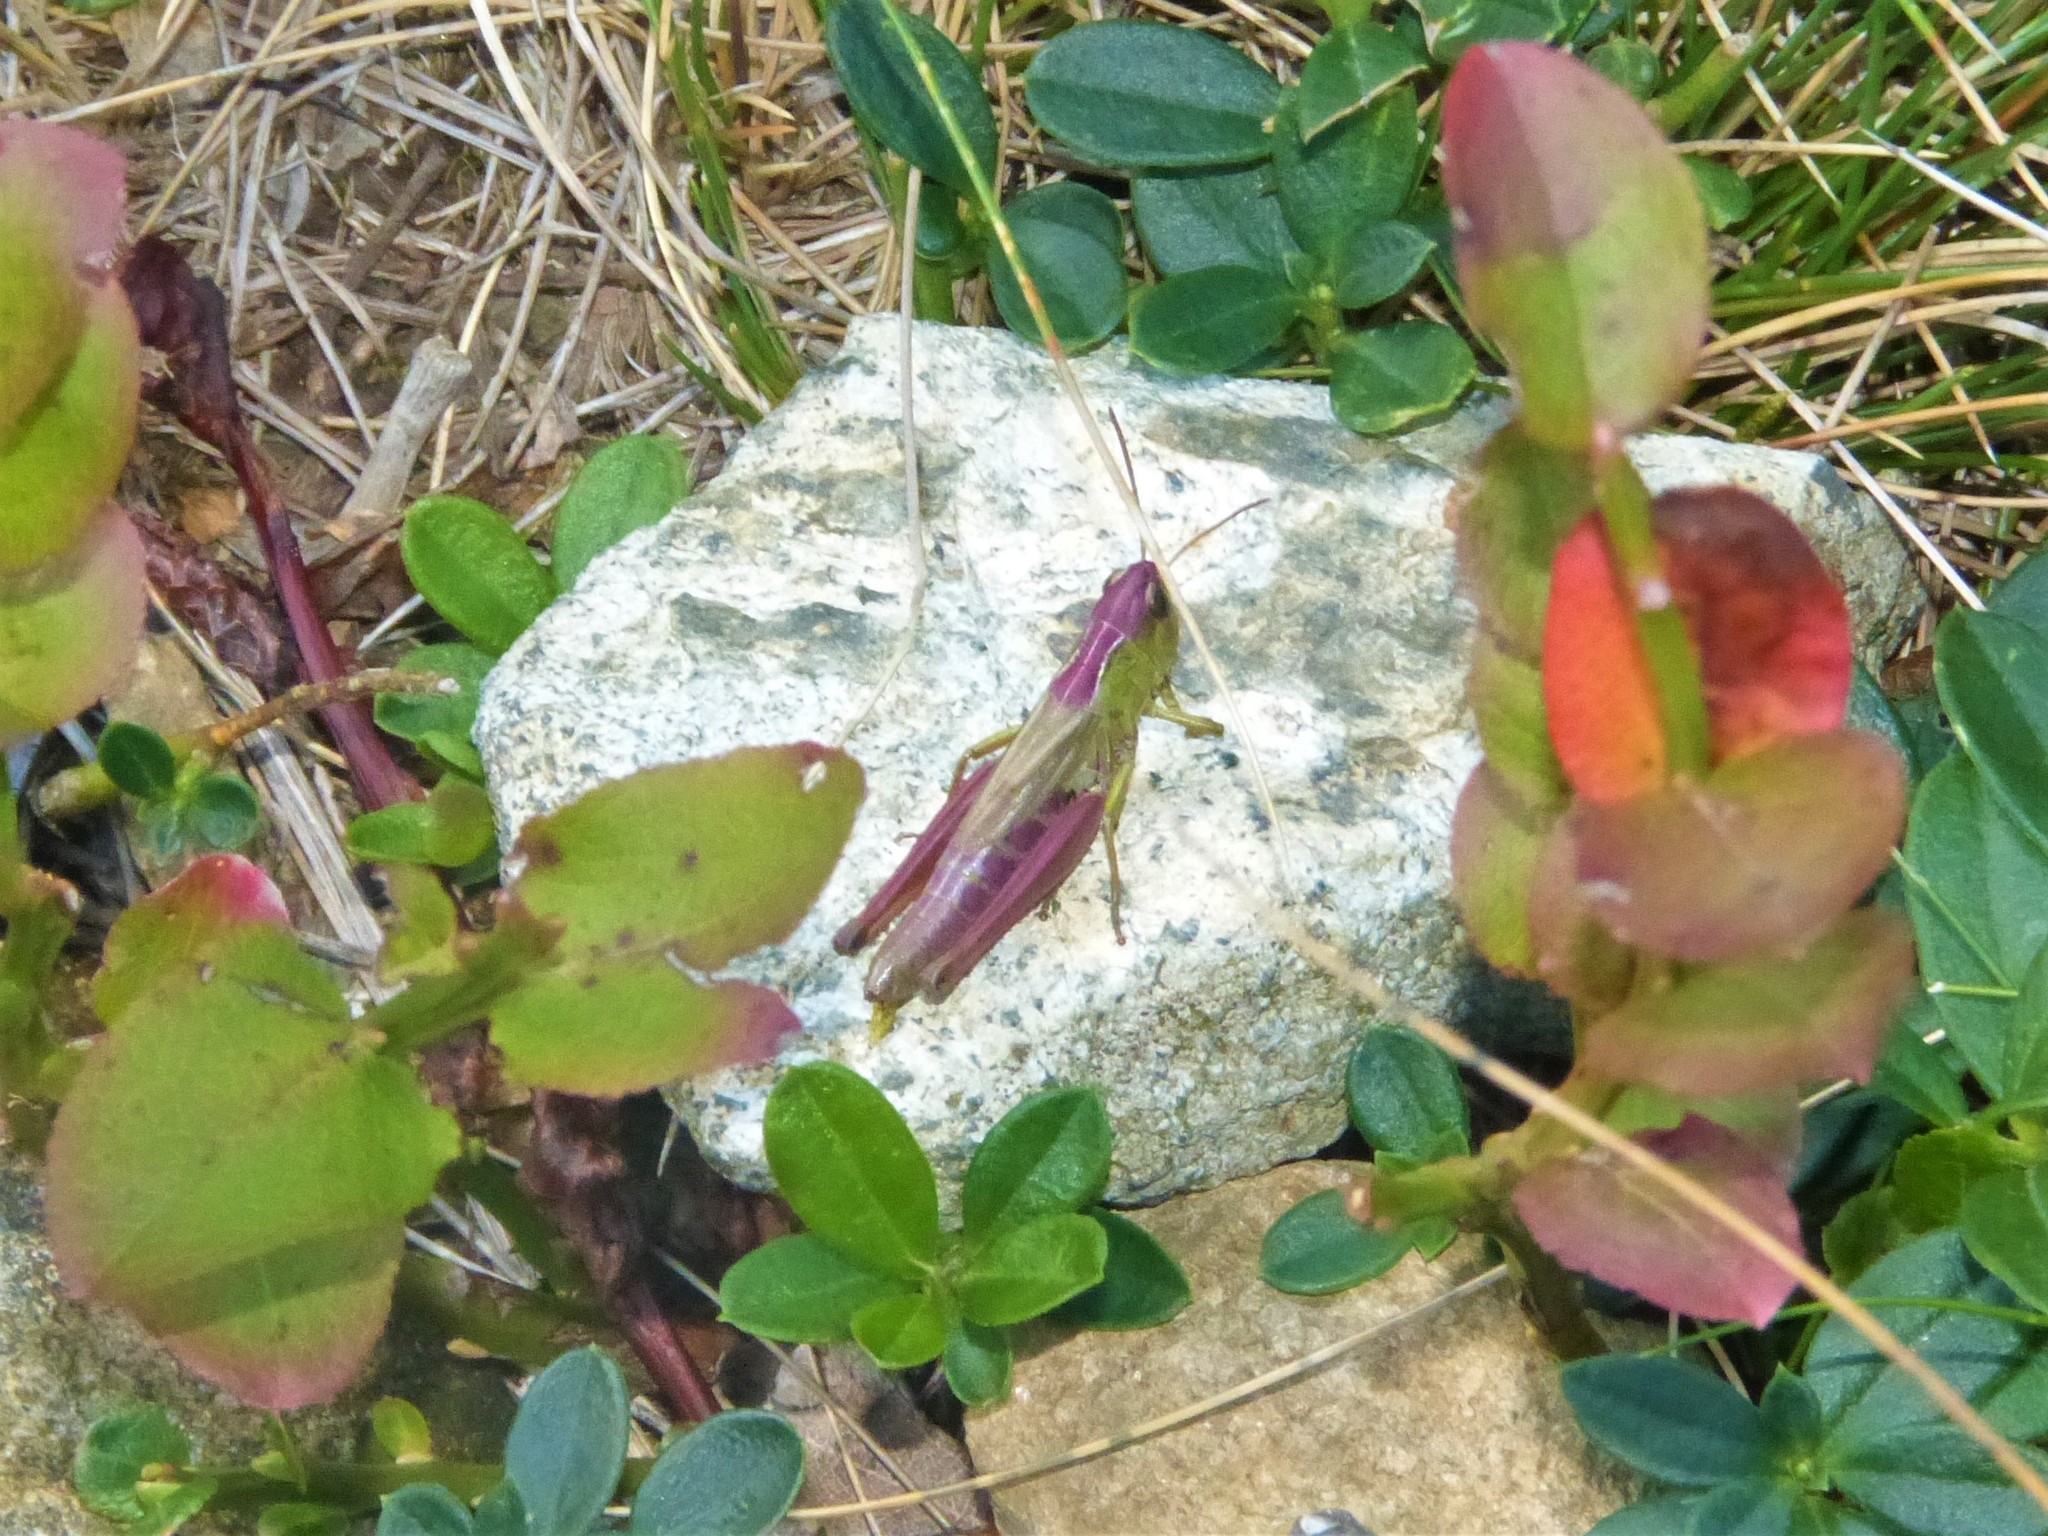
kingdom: Animalia
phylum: Arthropoda
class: Insecta
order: Orthoptera
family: Acrididae
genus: Pseudochorthippus
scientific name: Pseudochorthippus parallelus
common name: Meadow grasshopper
